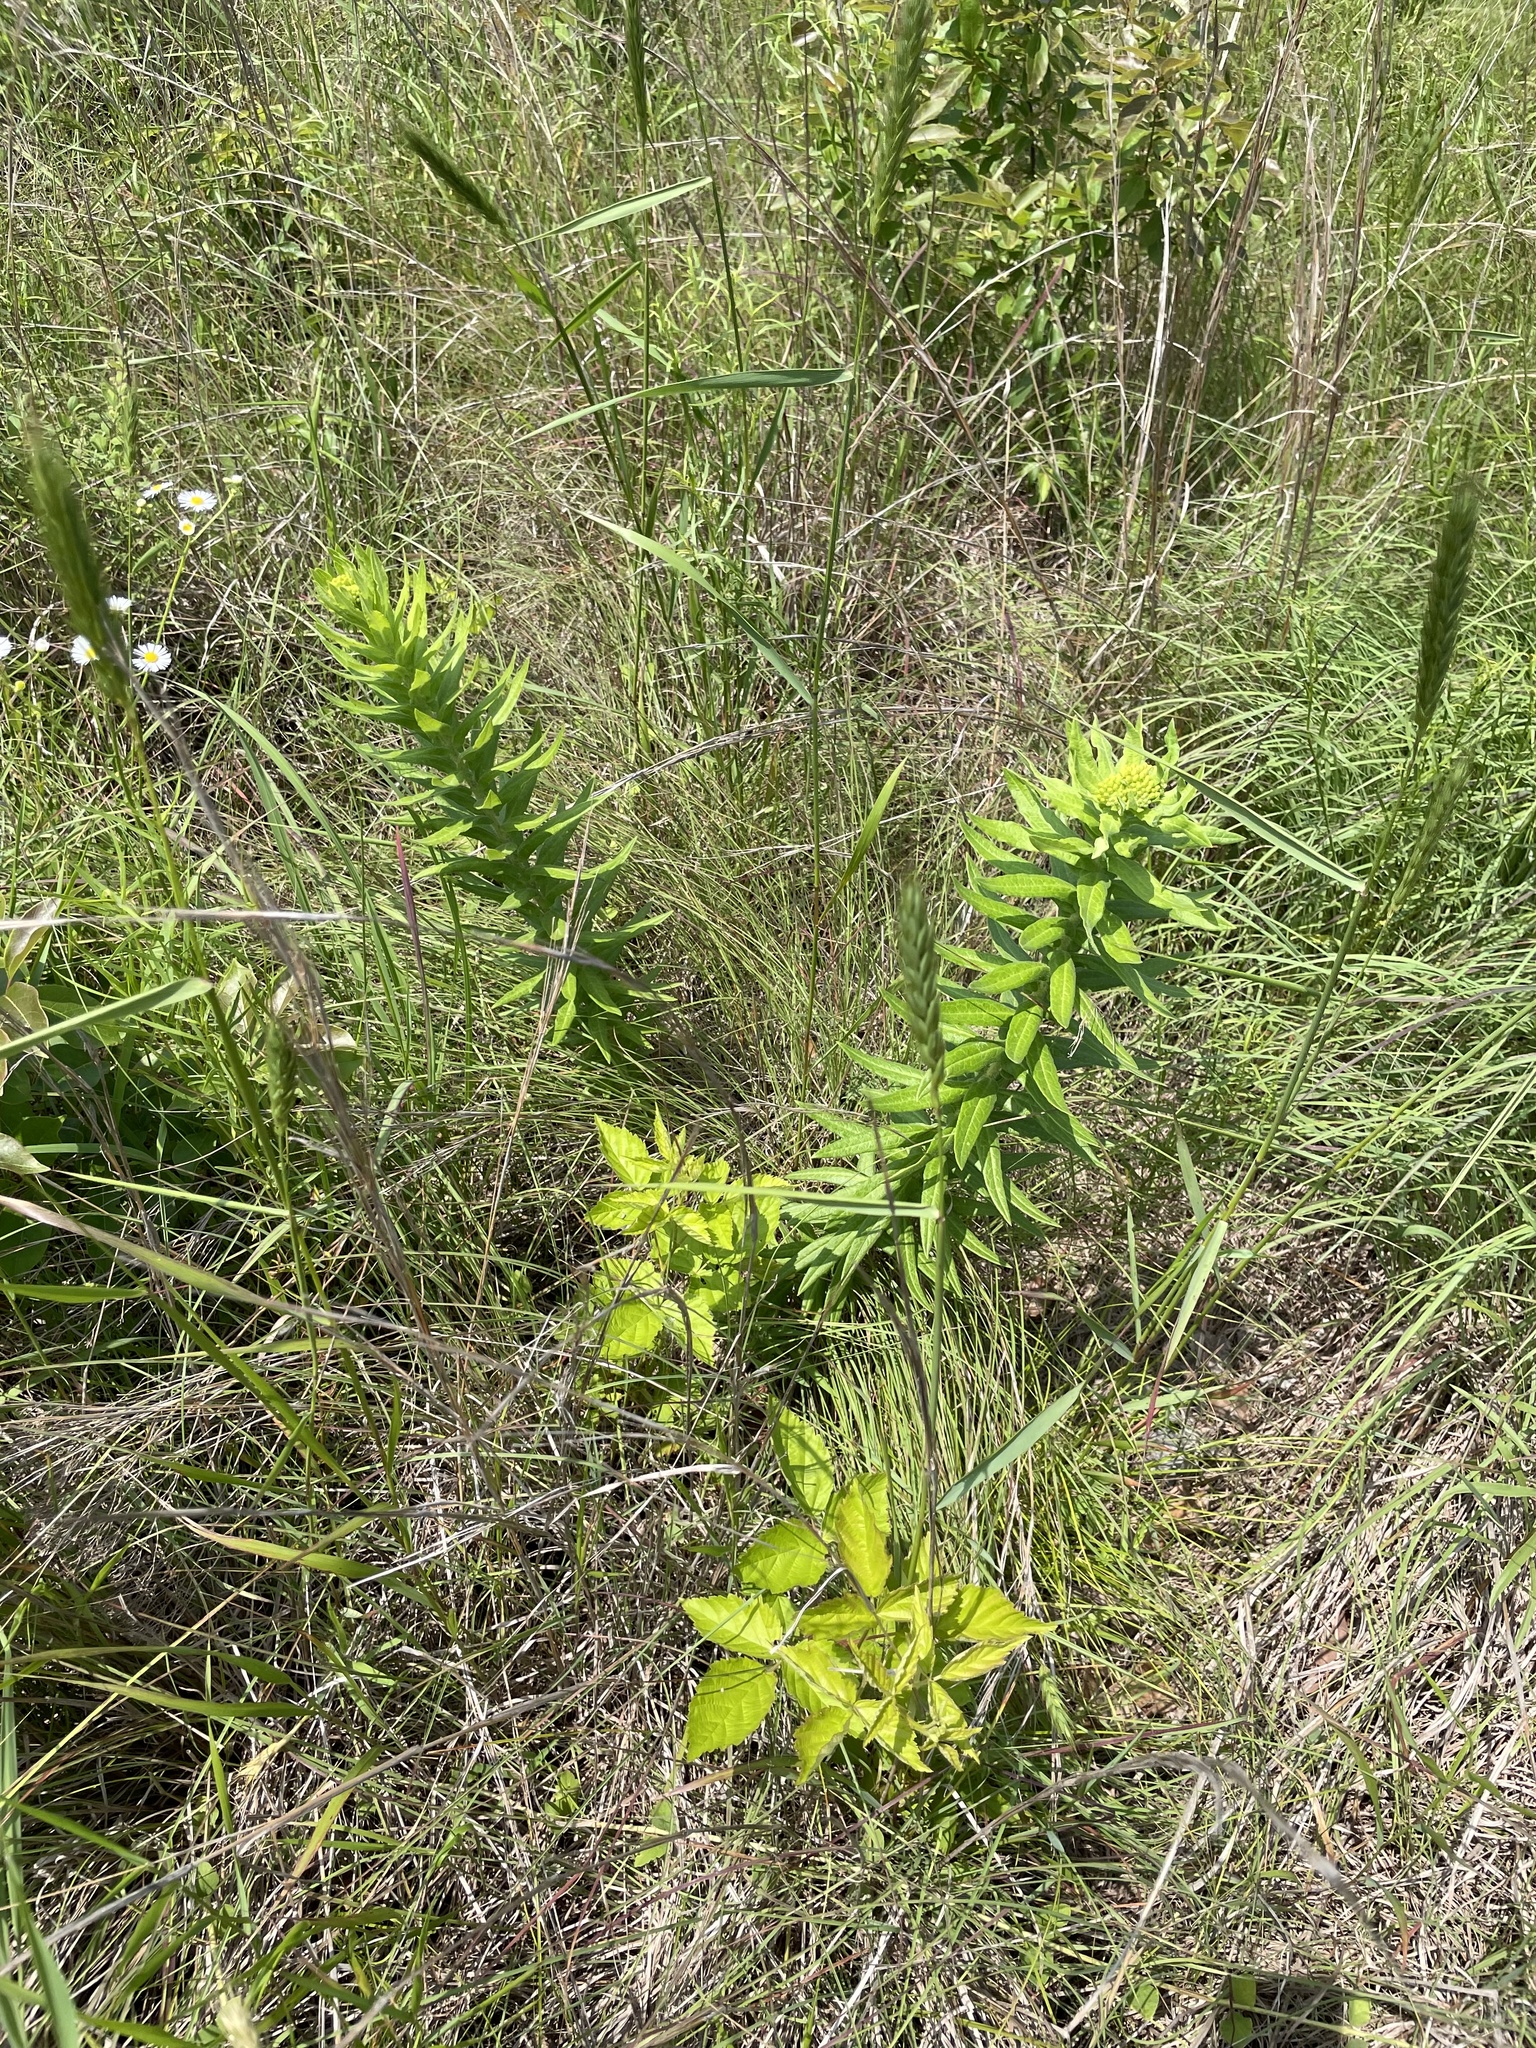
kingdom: Plantae
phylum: Tracheophyta
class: Magnoliopsida
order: Gentianales
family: Apocynaceae
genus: Asclepias
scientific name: Asclepias tuberosa
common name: Butterfly milkweed
